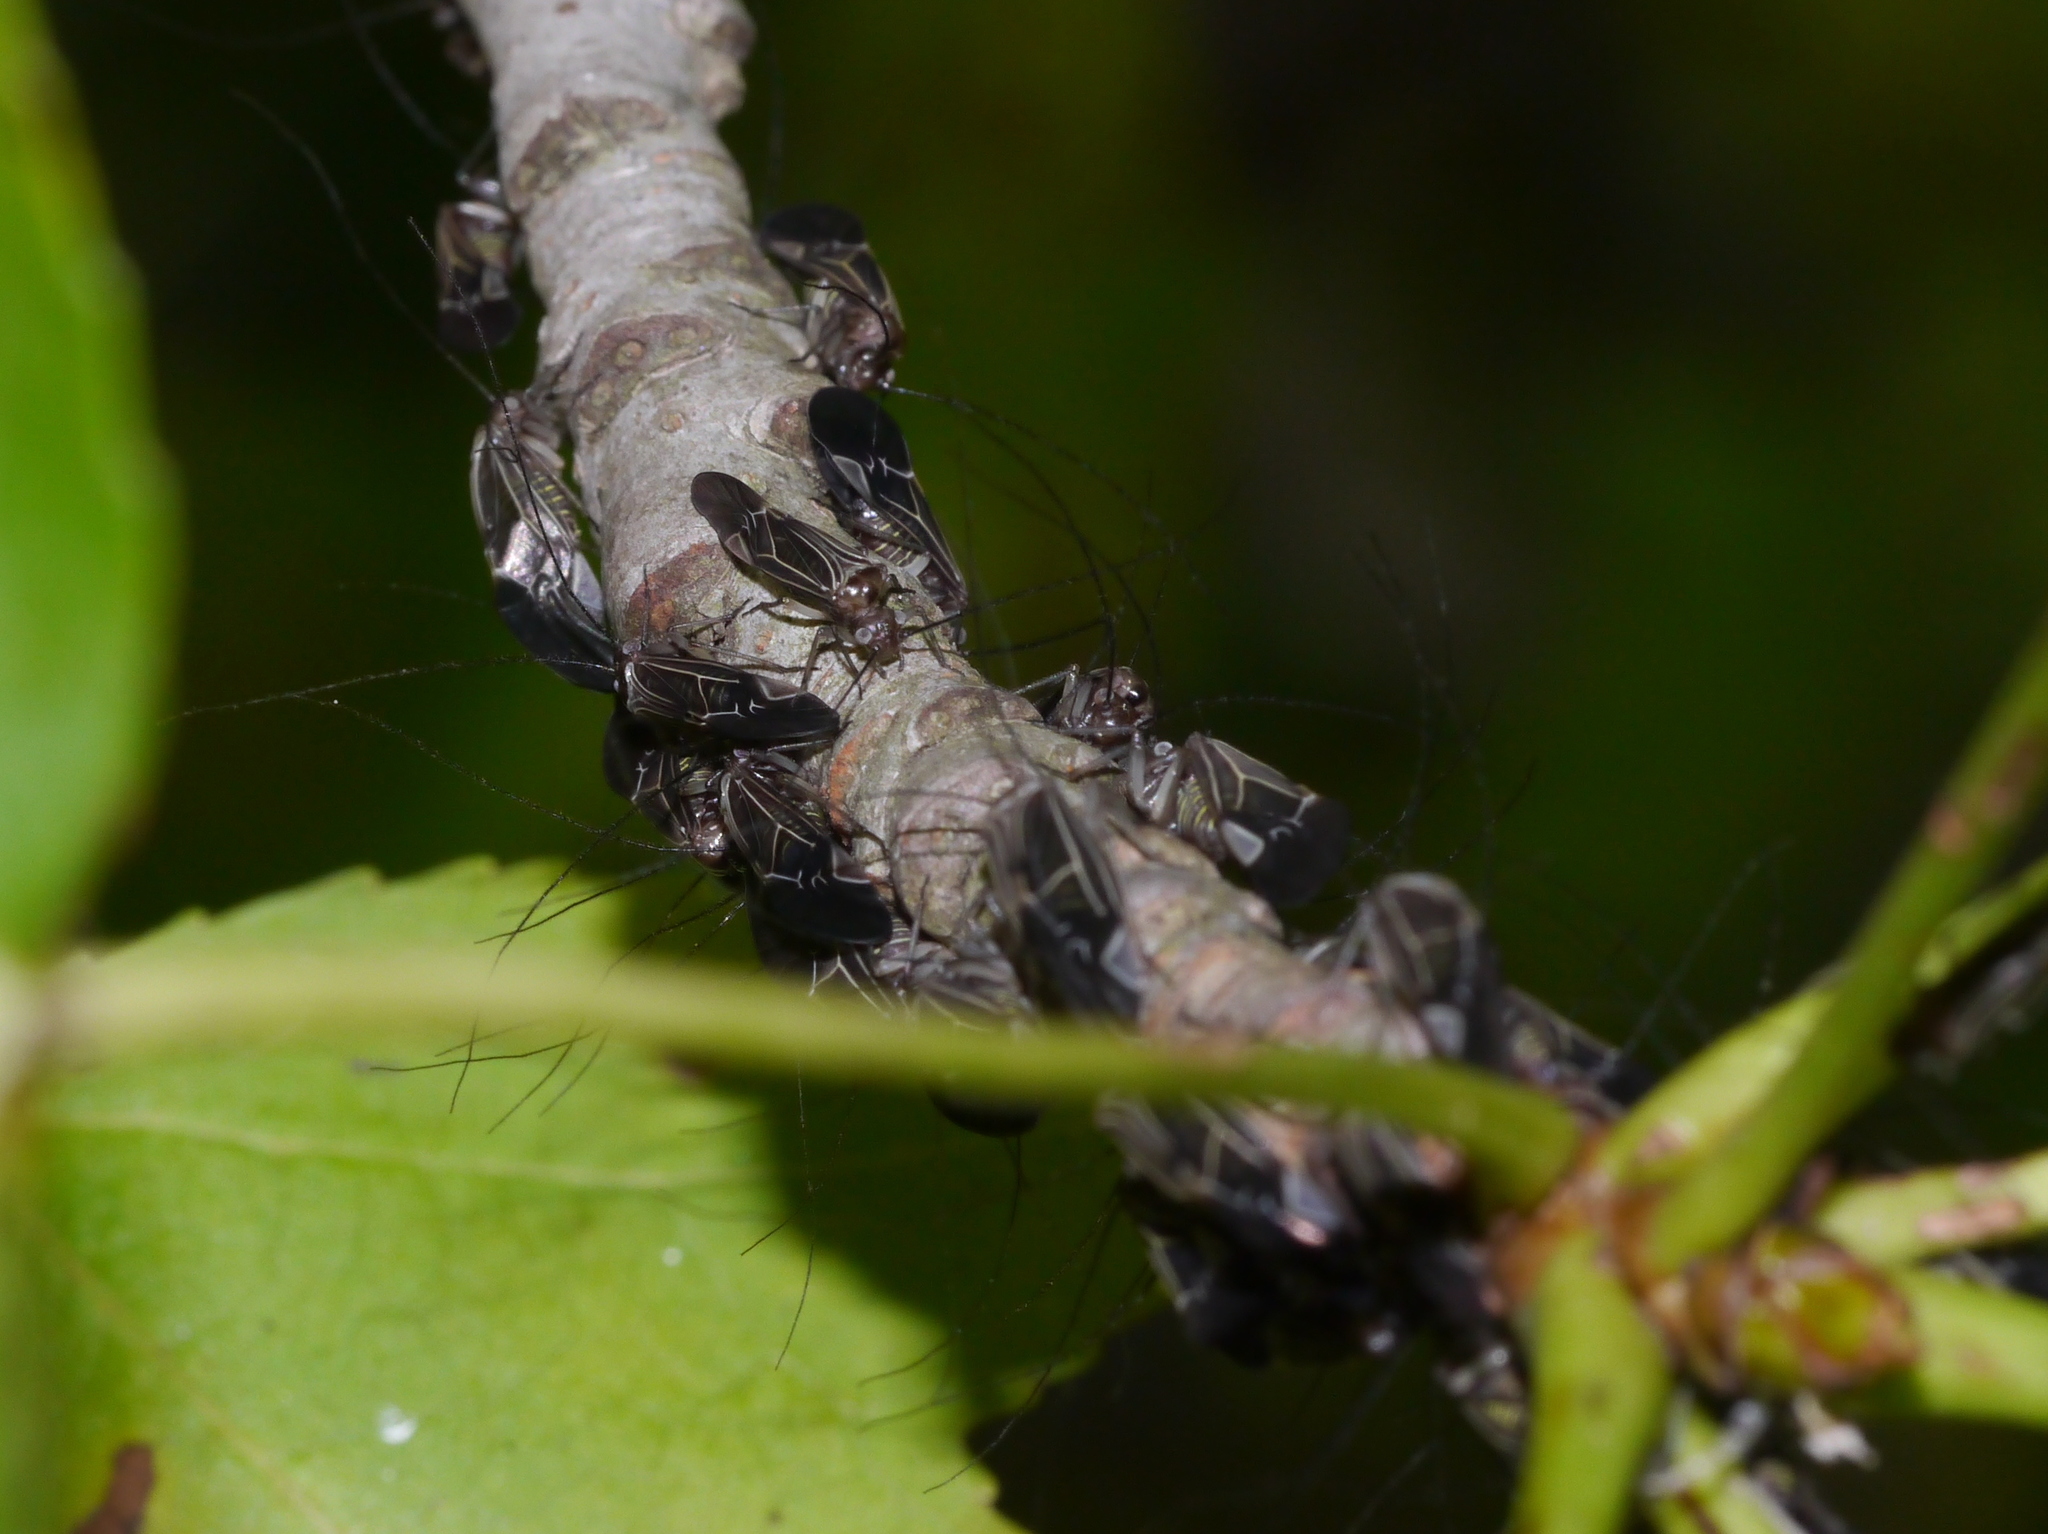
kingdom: Animalia
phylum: Arthropoda
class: Insecta
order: Psocodea
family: Psocidae
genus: Cerastipsocus
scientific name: Cerastipsocus venosus
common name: Tree cattle
